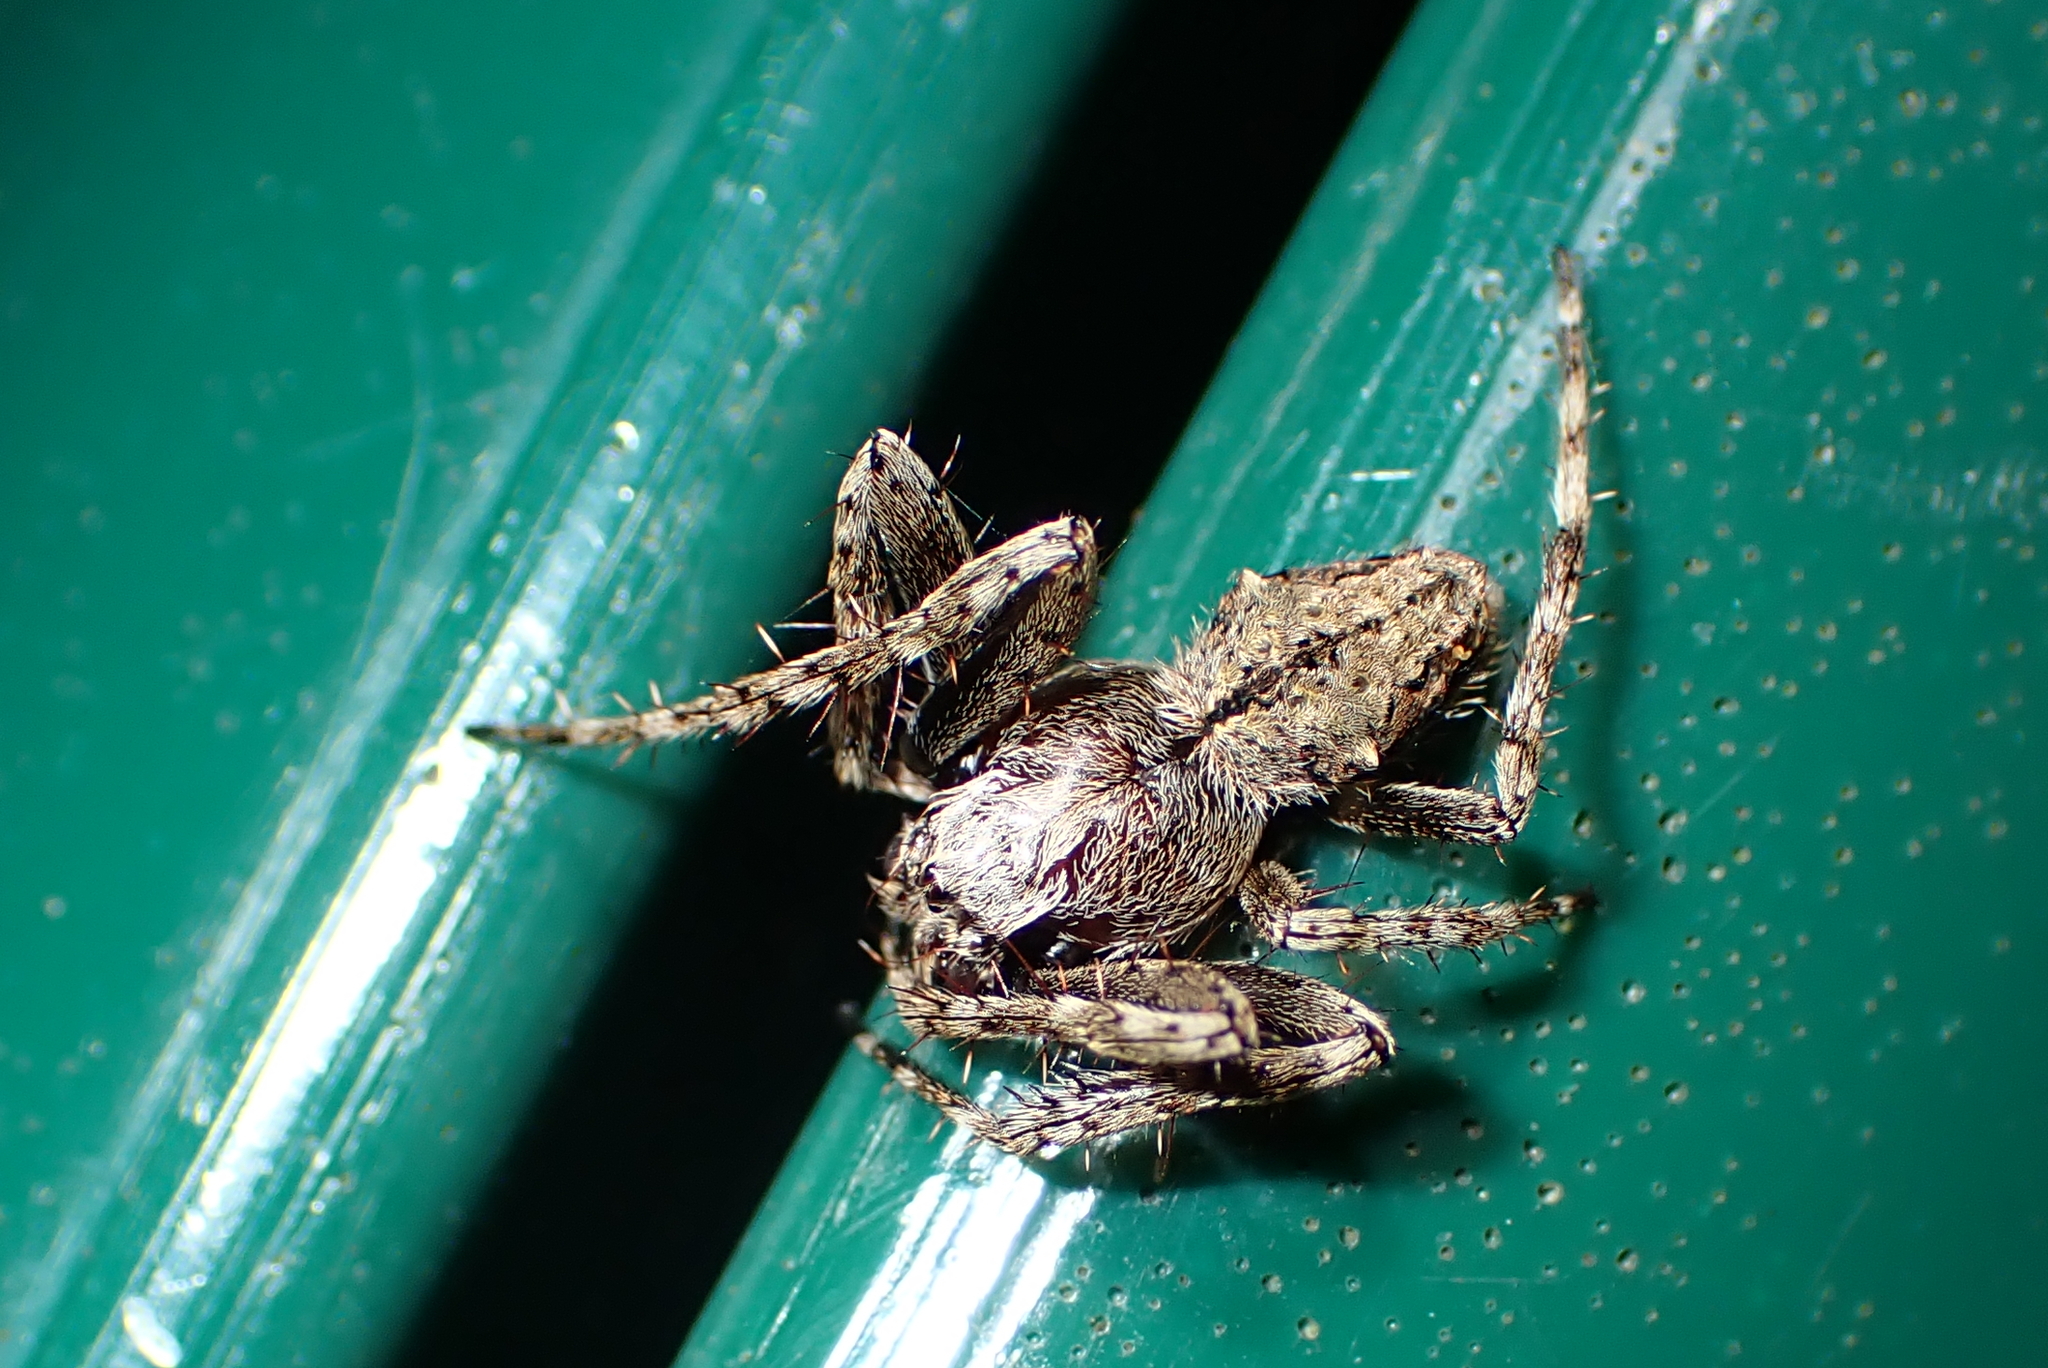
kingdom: Animalia
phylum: Arthropoda
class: Arachnida
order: Araneae
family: Araneidae
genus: Eriophora
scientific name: Eriophora pustulosa
